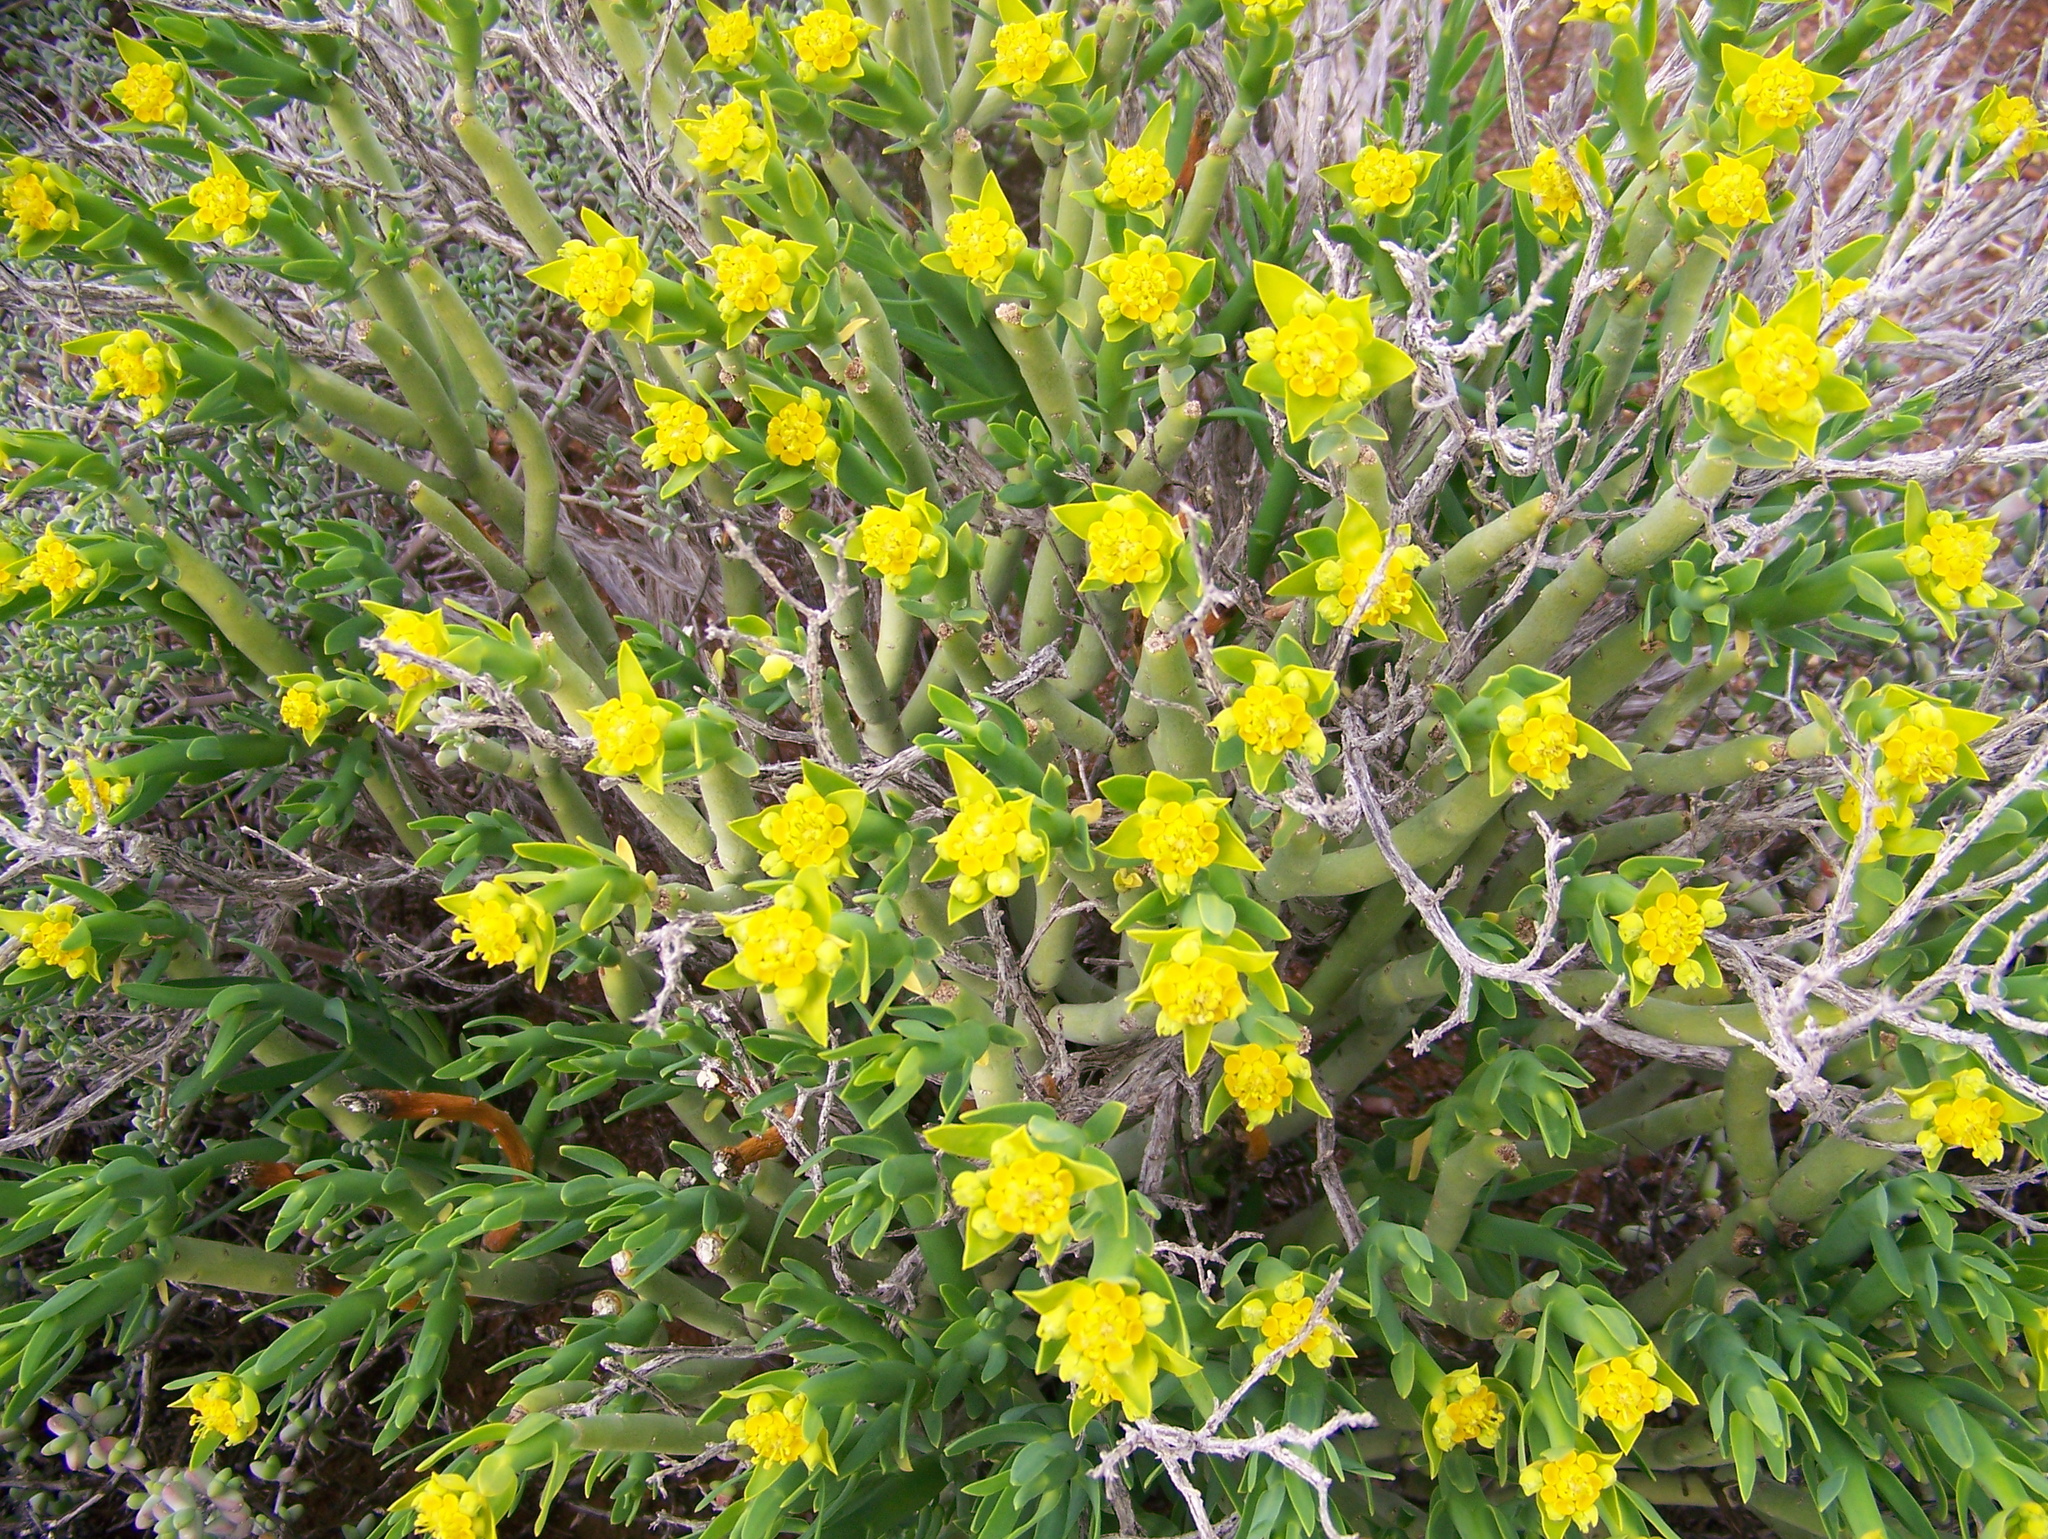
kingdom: Plantae
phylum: Tracheophyta
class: Magnoliopsida
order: Malpighiales
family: Euphorbiaceae
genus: Euphorbia
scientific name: Euphorbia mauritanica
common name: Jackal's-food
